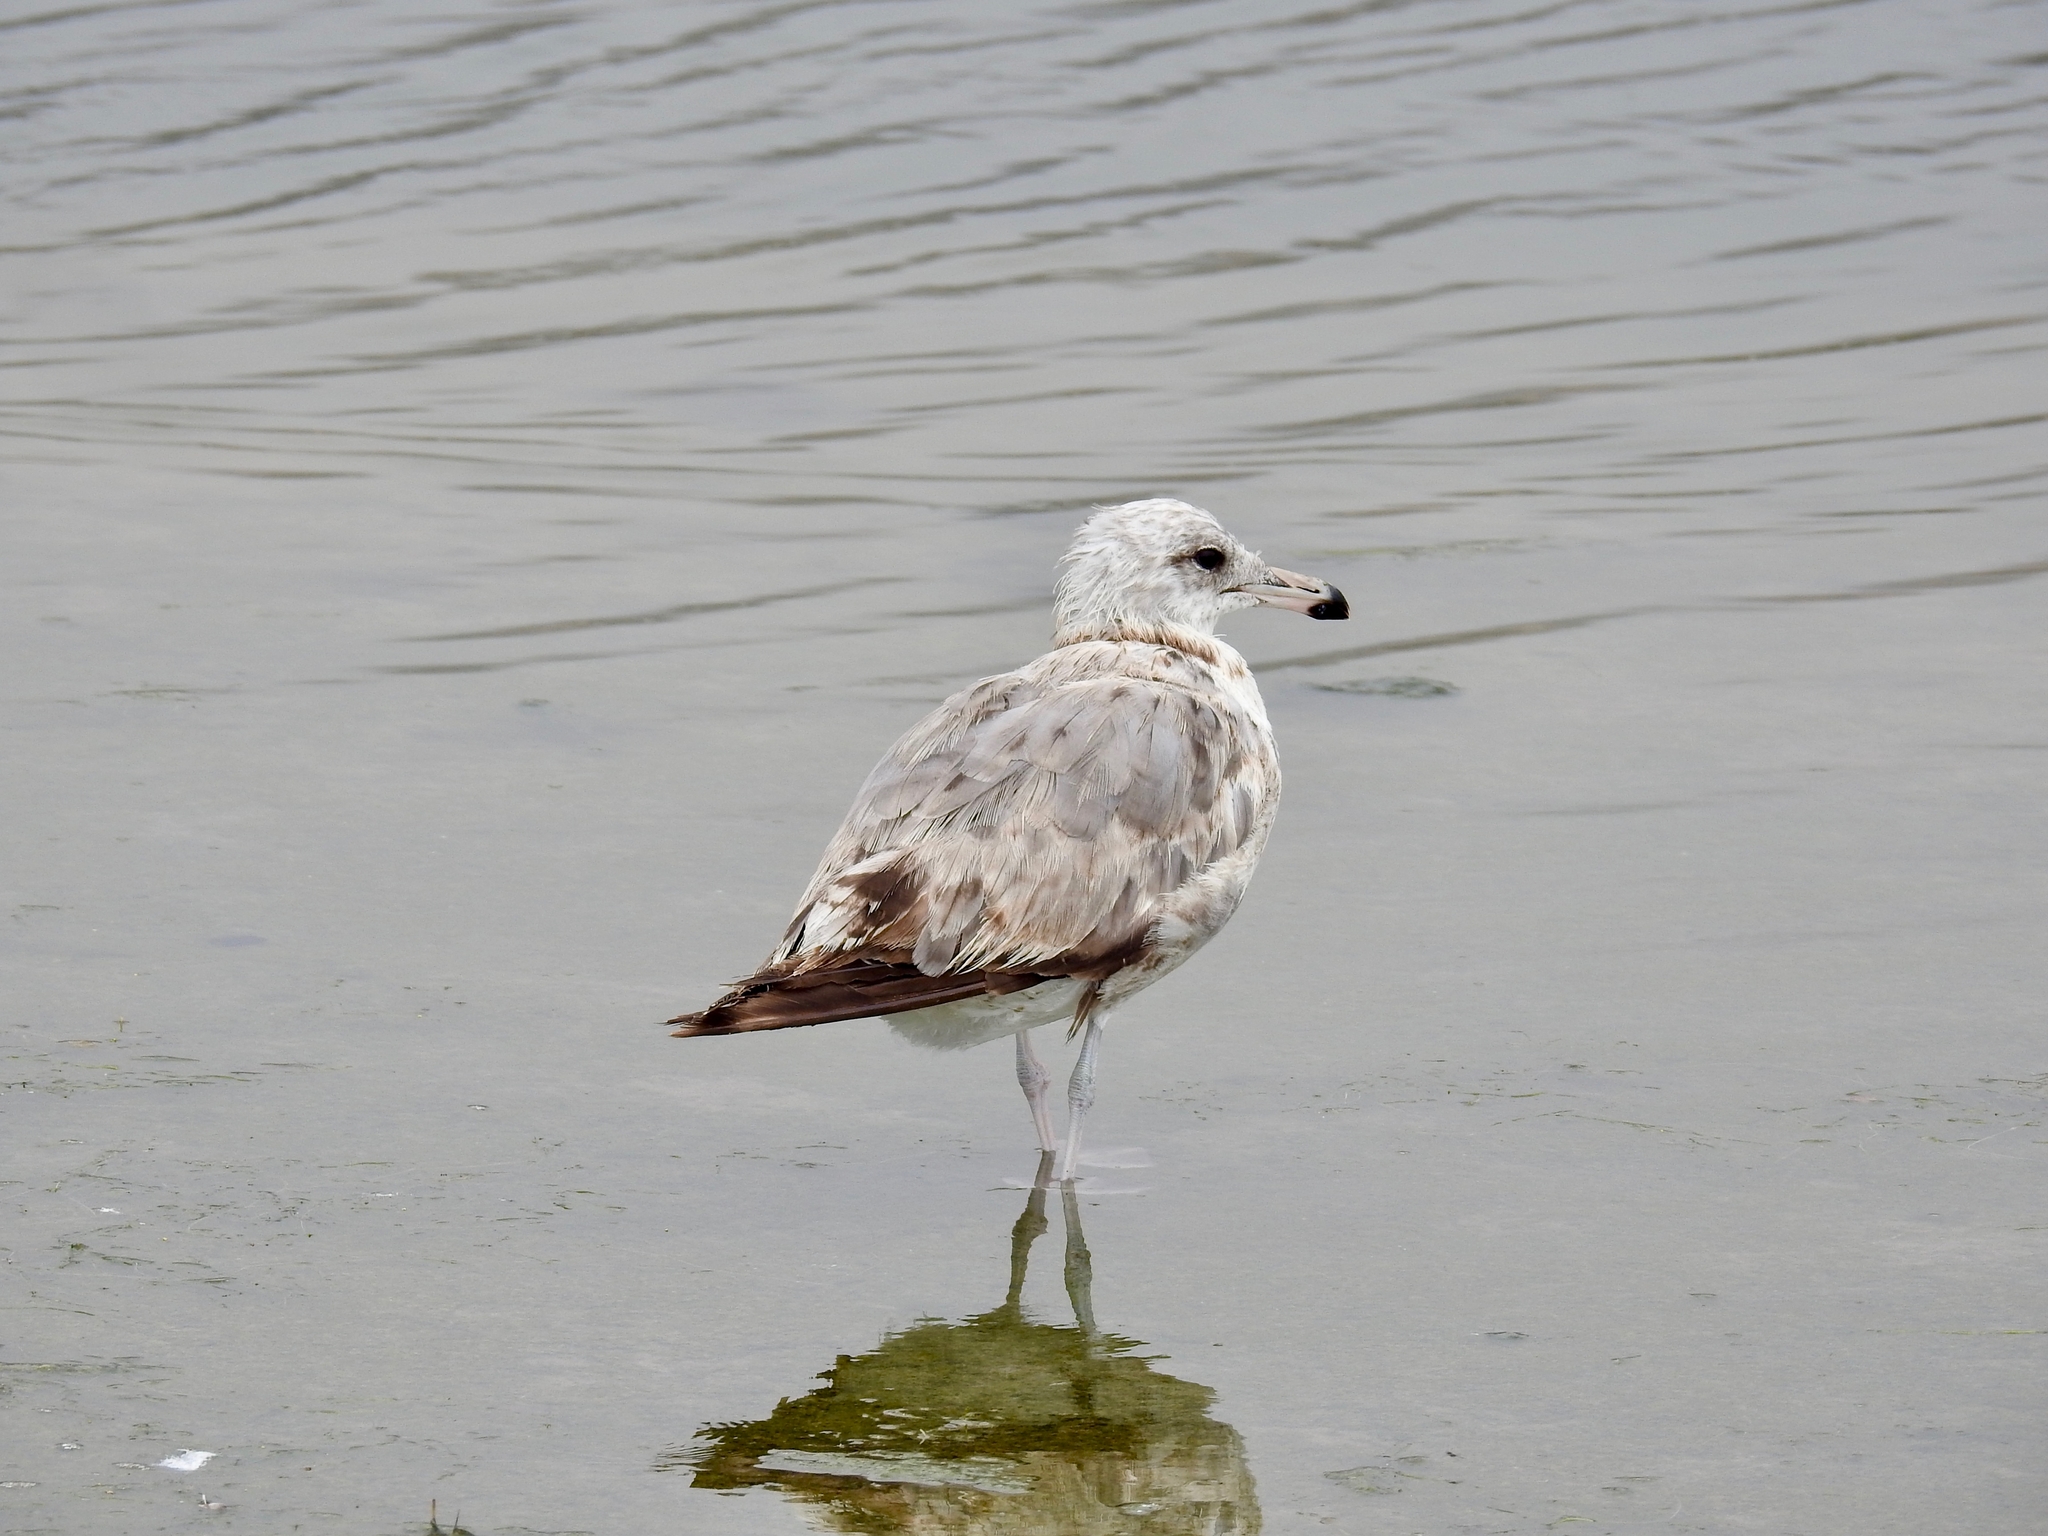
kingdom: Animalia
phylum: Chordata
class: Aves
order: Charadriiformes
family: Laridae
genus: Larus
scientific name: Larus californicus
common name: California gull
